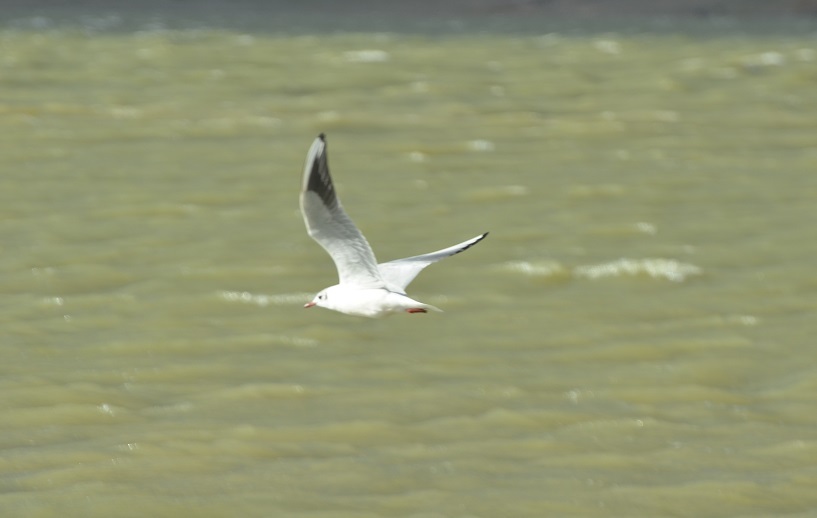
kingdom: Animalia
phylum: Chordata
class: Aves
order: Charadriiformes
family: Laridae
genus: Chroicocephalus
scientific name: Chroicocephalus ridibundus
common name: Black-headed gull
